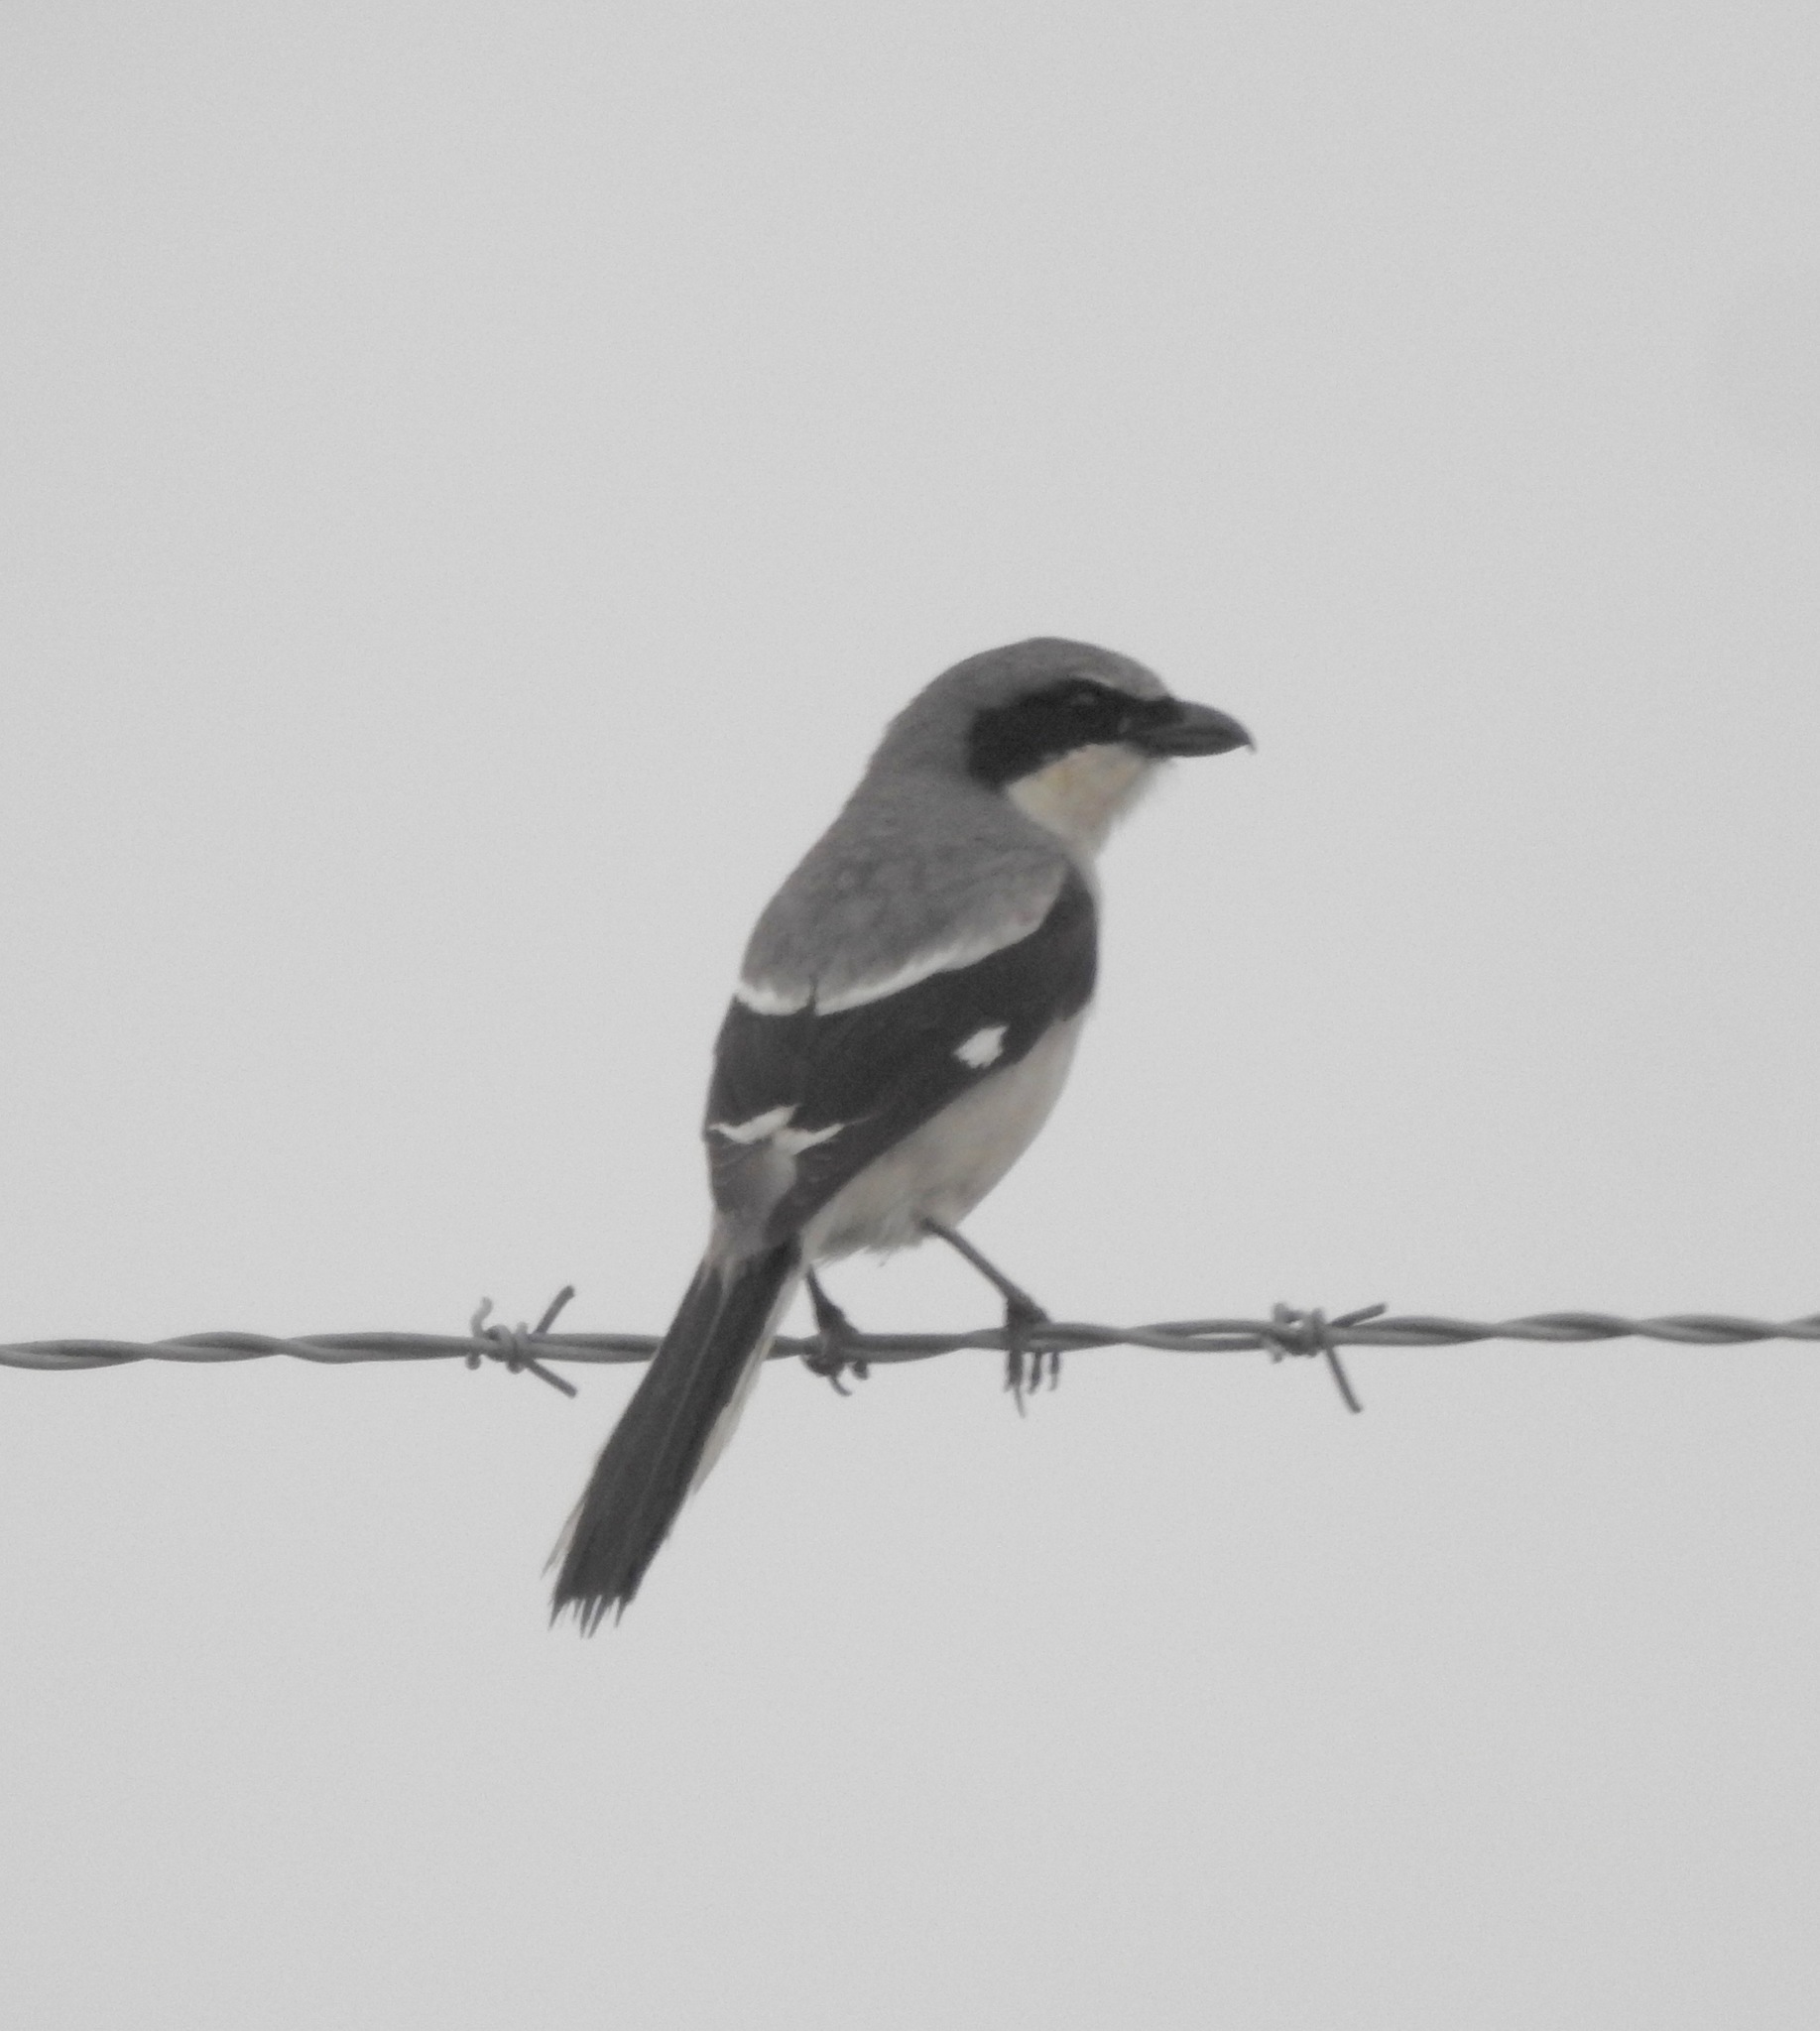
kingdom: Animalia
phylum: Chordata
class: Aves
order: Passeriformes
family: Laniidae
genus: Lanius
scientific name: Lanius ludovicianus
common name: Loggerhead shrike
